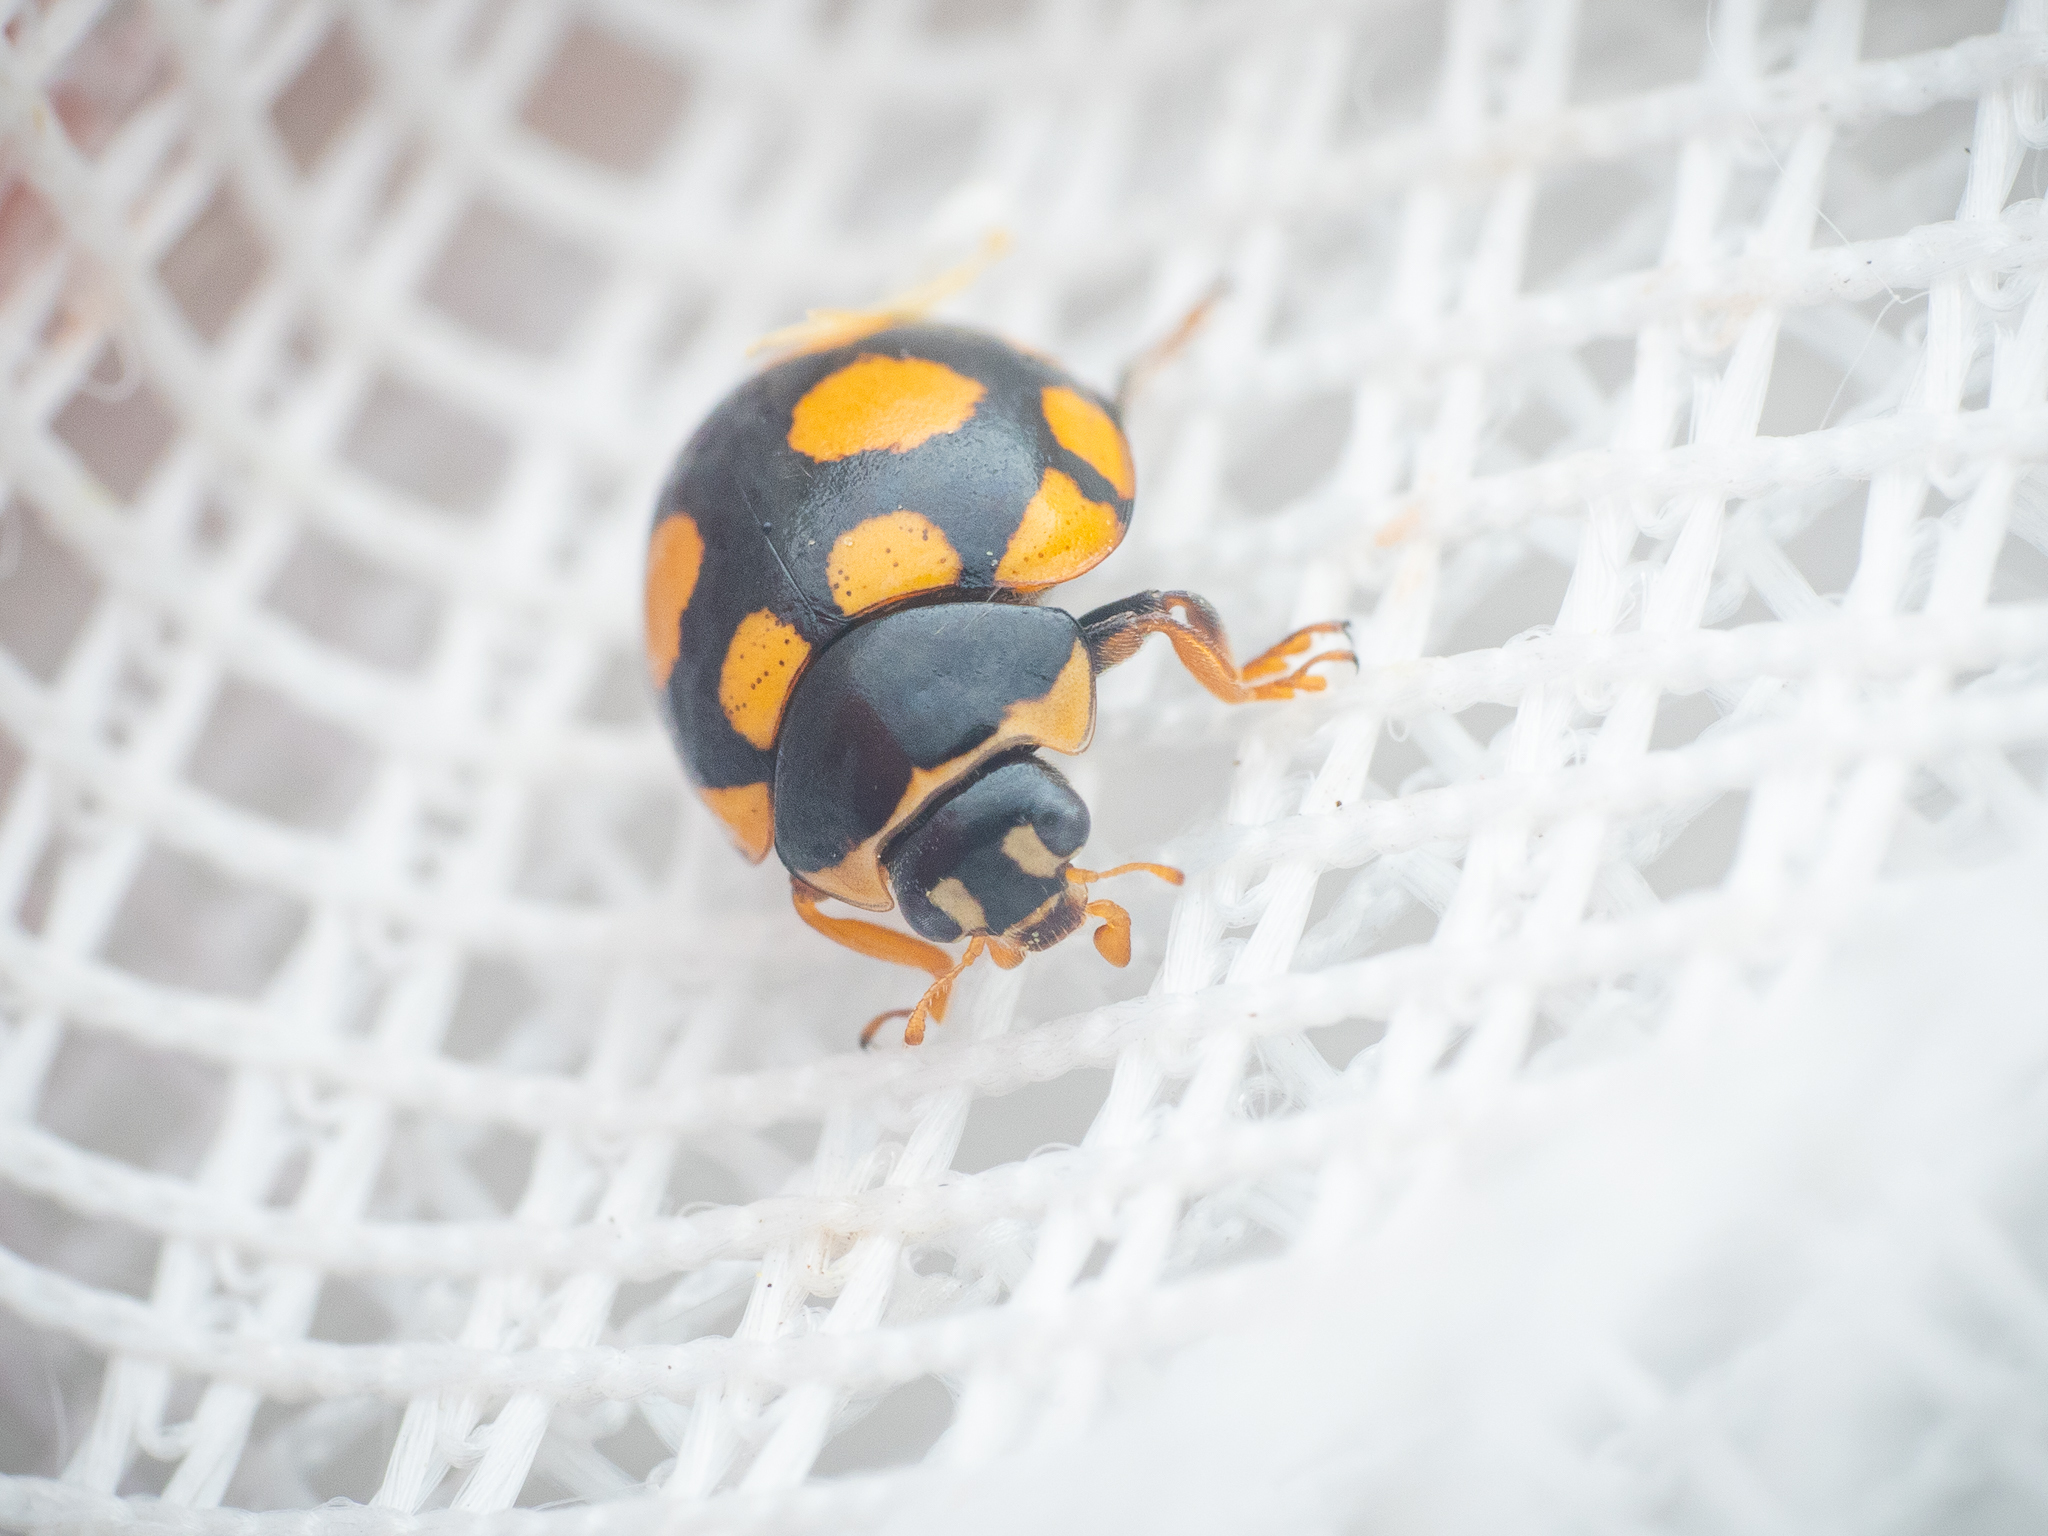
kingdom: Animalia
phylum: Arthropoda
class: Insecta
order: Coleoptera
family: Coccinellidae
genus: Coccinula
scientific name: Coccinula quatuordecimpustulata
